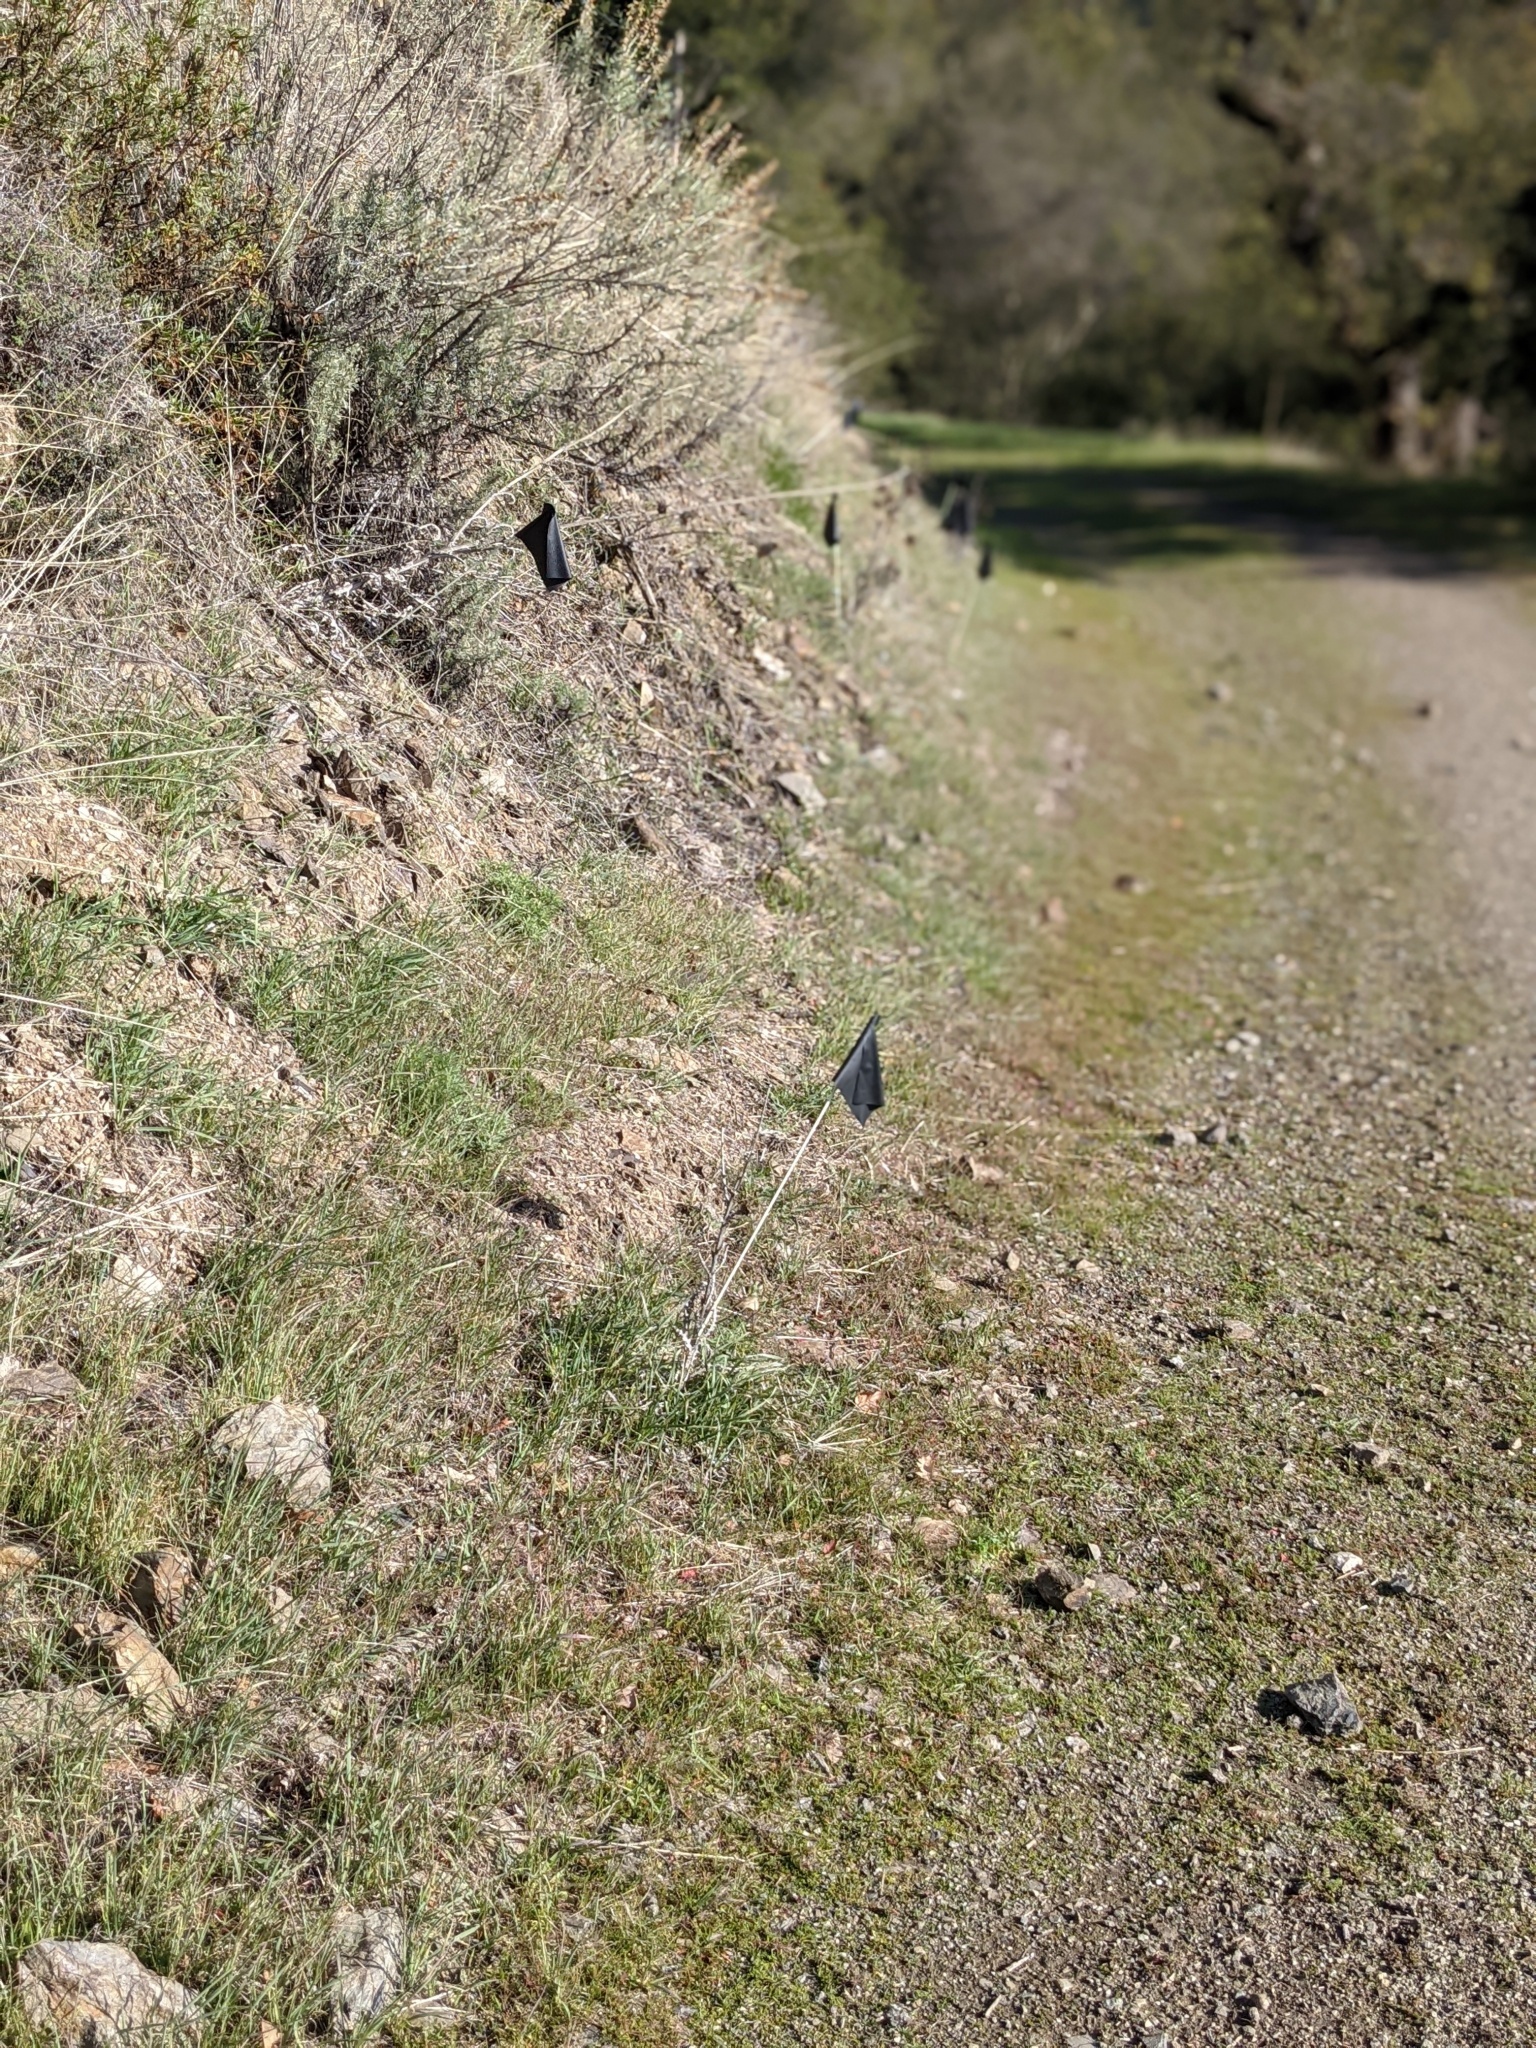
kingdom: Plantae
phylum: Tracheophyta
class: Magnoliopsida
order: Asterales
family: Asteraceae
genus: Cirsium
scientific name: Cirsium occidentale
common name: Western thistle
